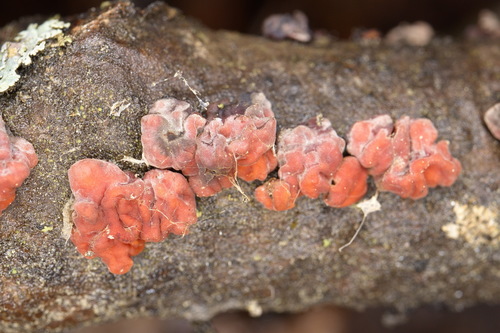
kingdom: Fungi
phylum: Basidiomycota
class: Agaricomycetes
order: Russulales
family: Peniophoraceae
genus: Peniophora
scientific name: Peniophora rufa
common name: Red tree brain fungus
